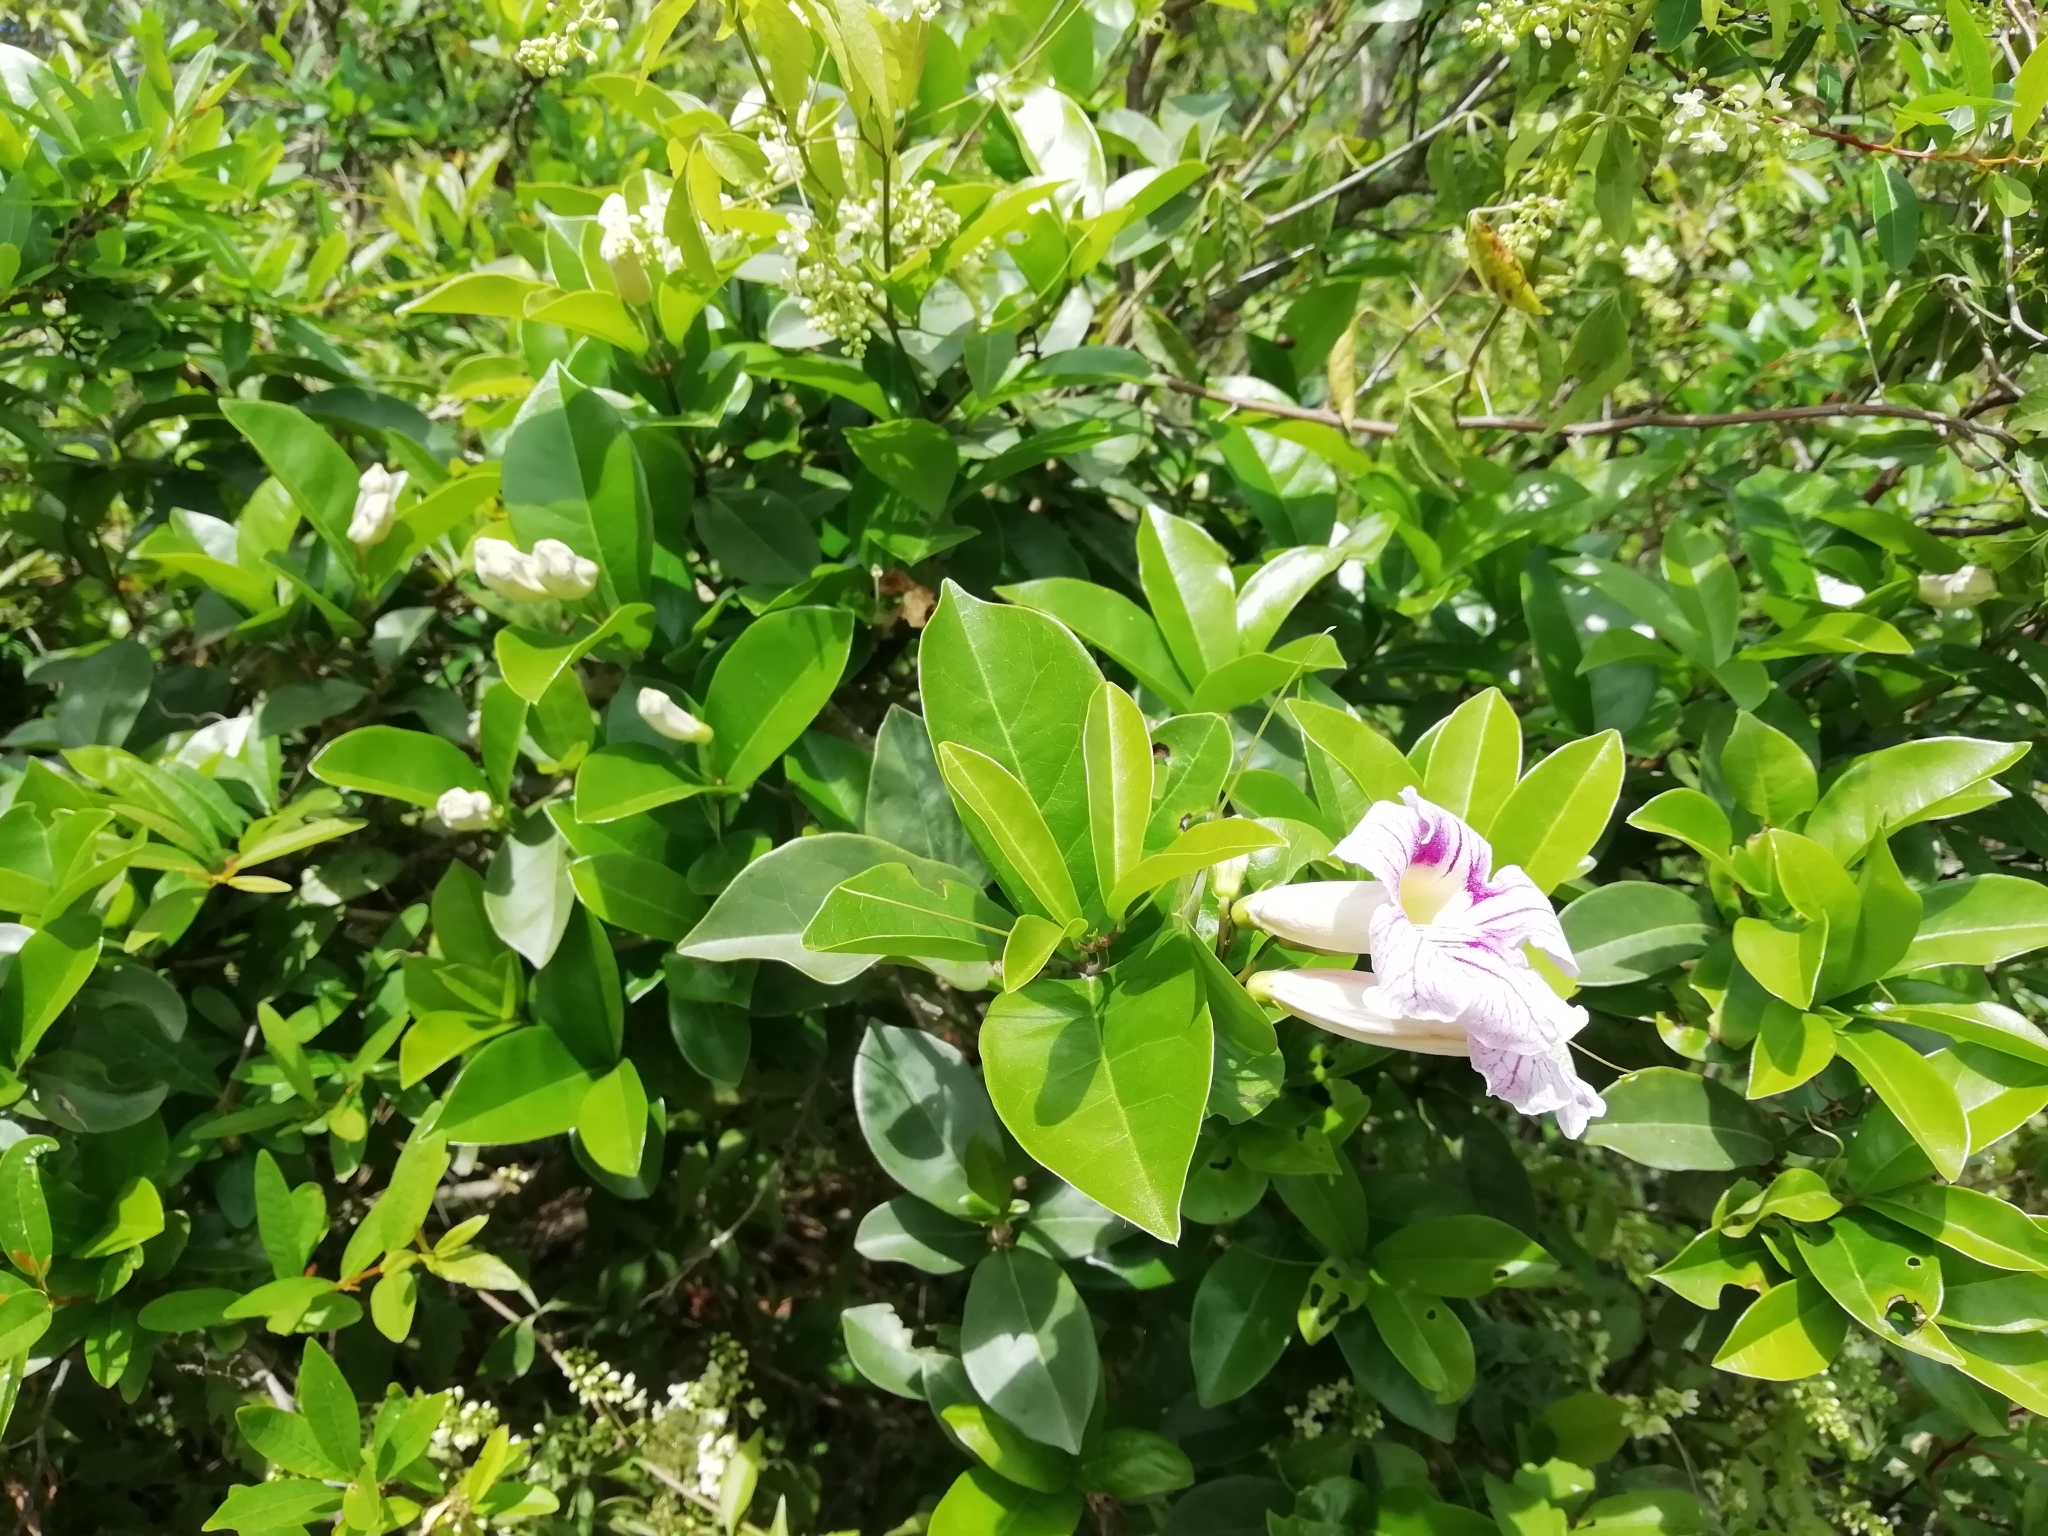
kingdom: Plantae
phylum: Tracheophyta
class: Magnoliopsida
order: Lamiales
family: Bignoniaceae
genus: Bignonia
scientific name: Bignonia callistegioides
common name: Argentine trumpetvine
